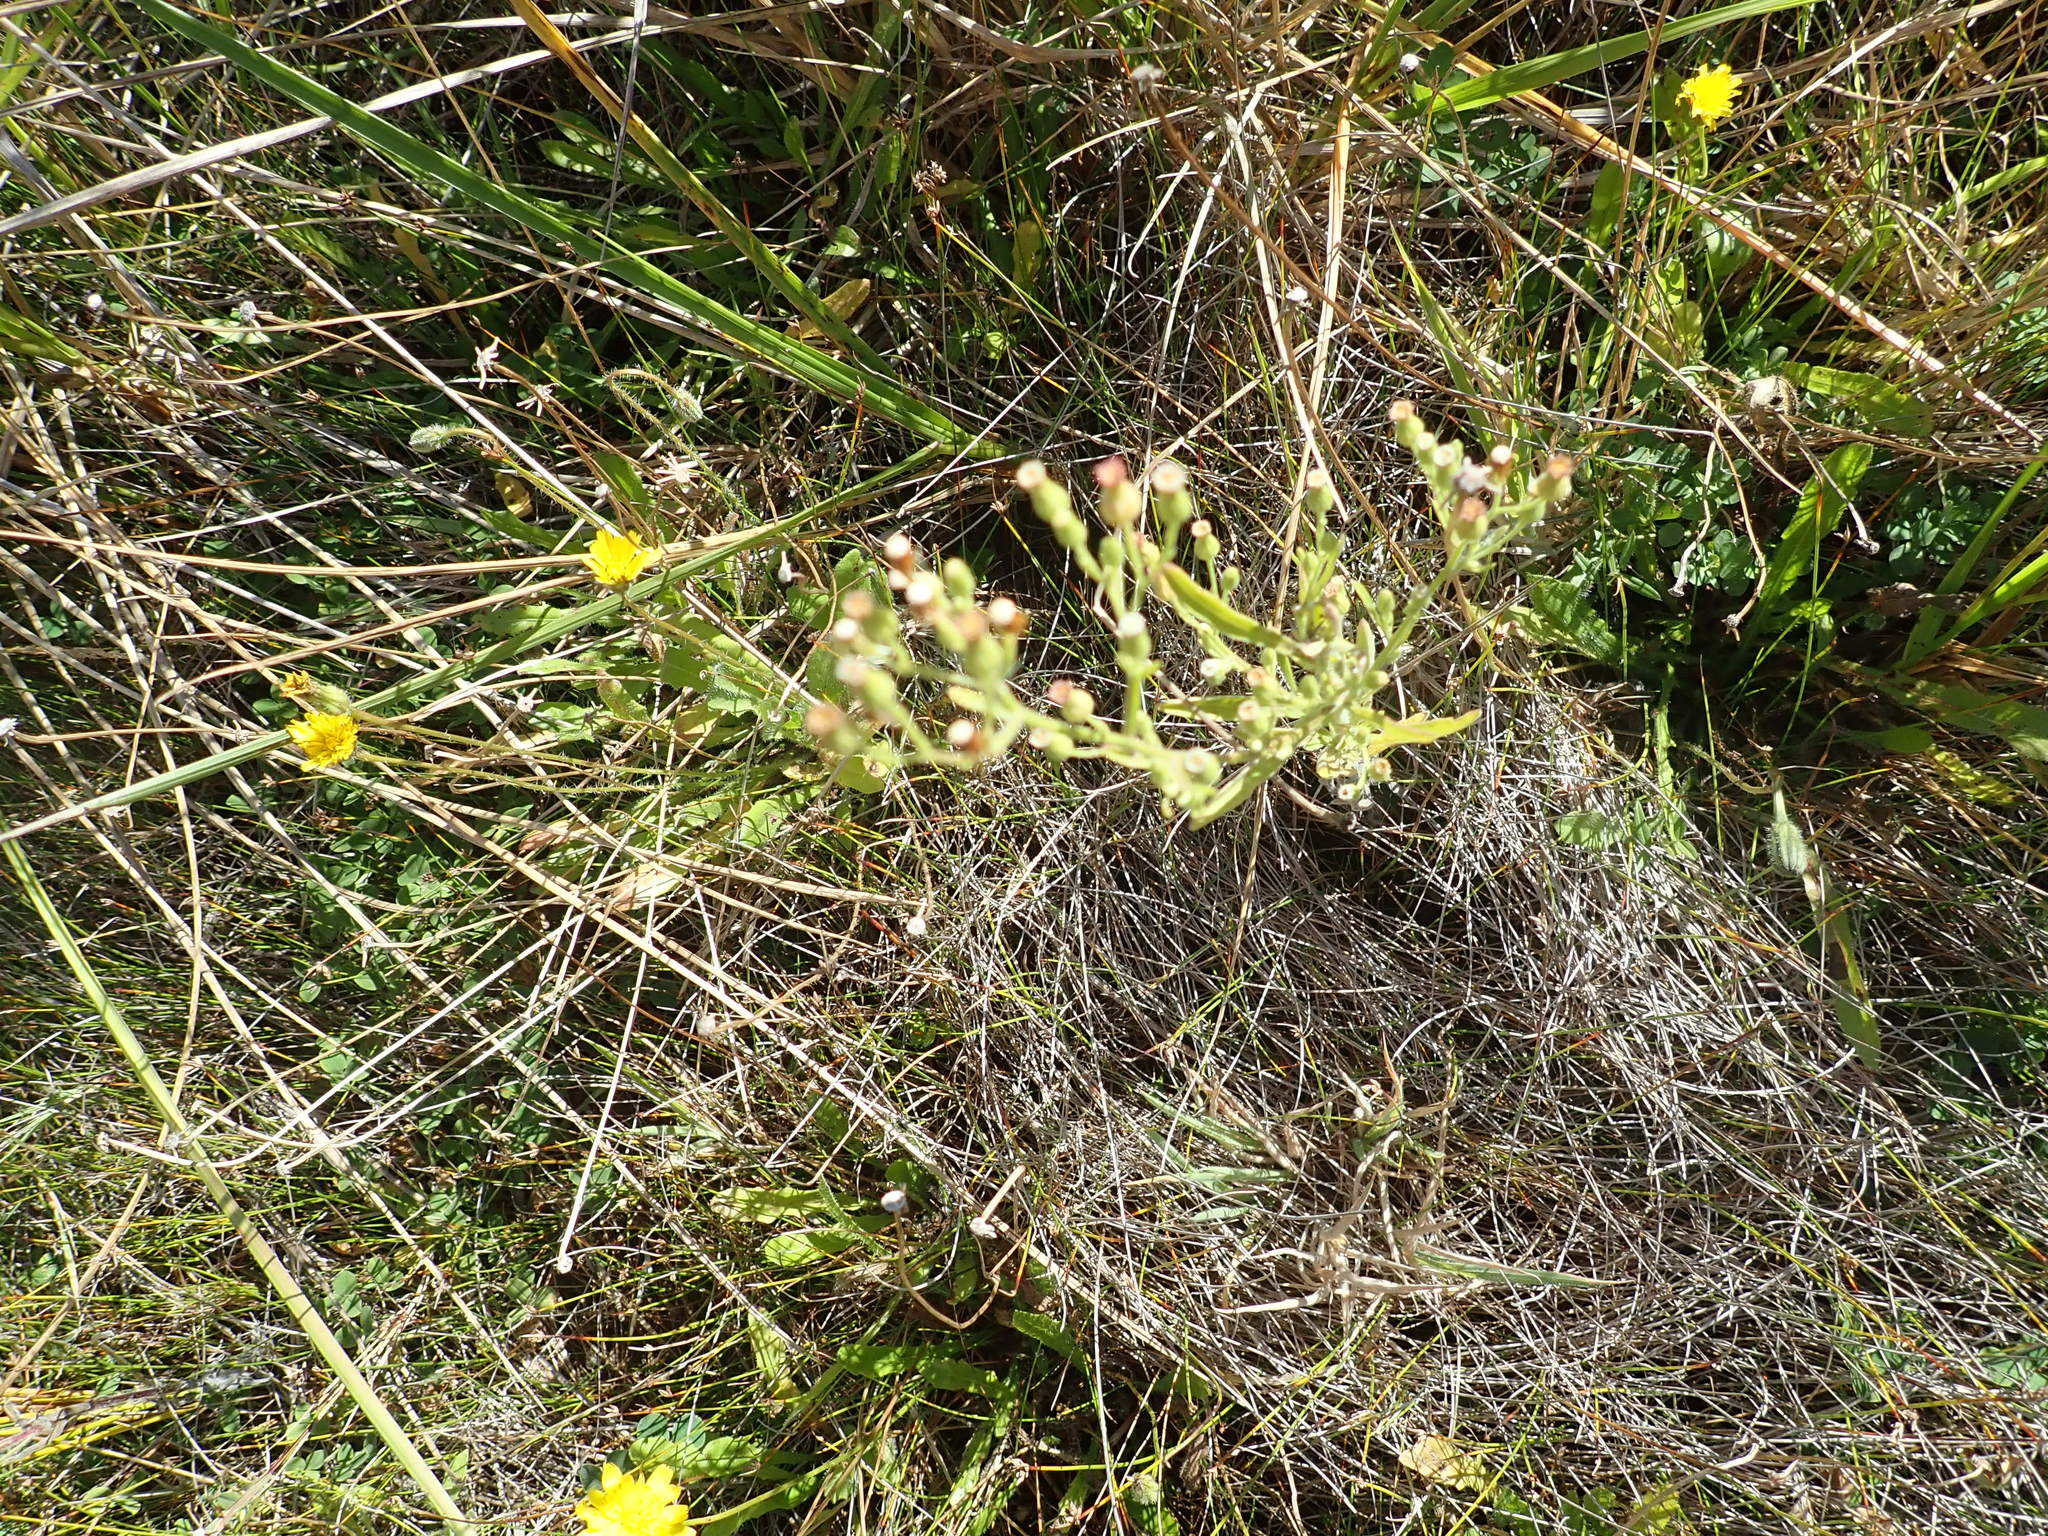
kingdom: Plantae
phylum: Tracheophyta
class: Magnoliopsida
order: Asterales
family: Asteraceae
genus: Symphyotrichum
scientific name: Symphyotrichum subulatum
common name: Annual saltmarsh aster
